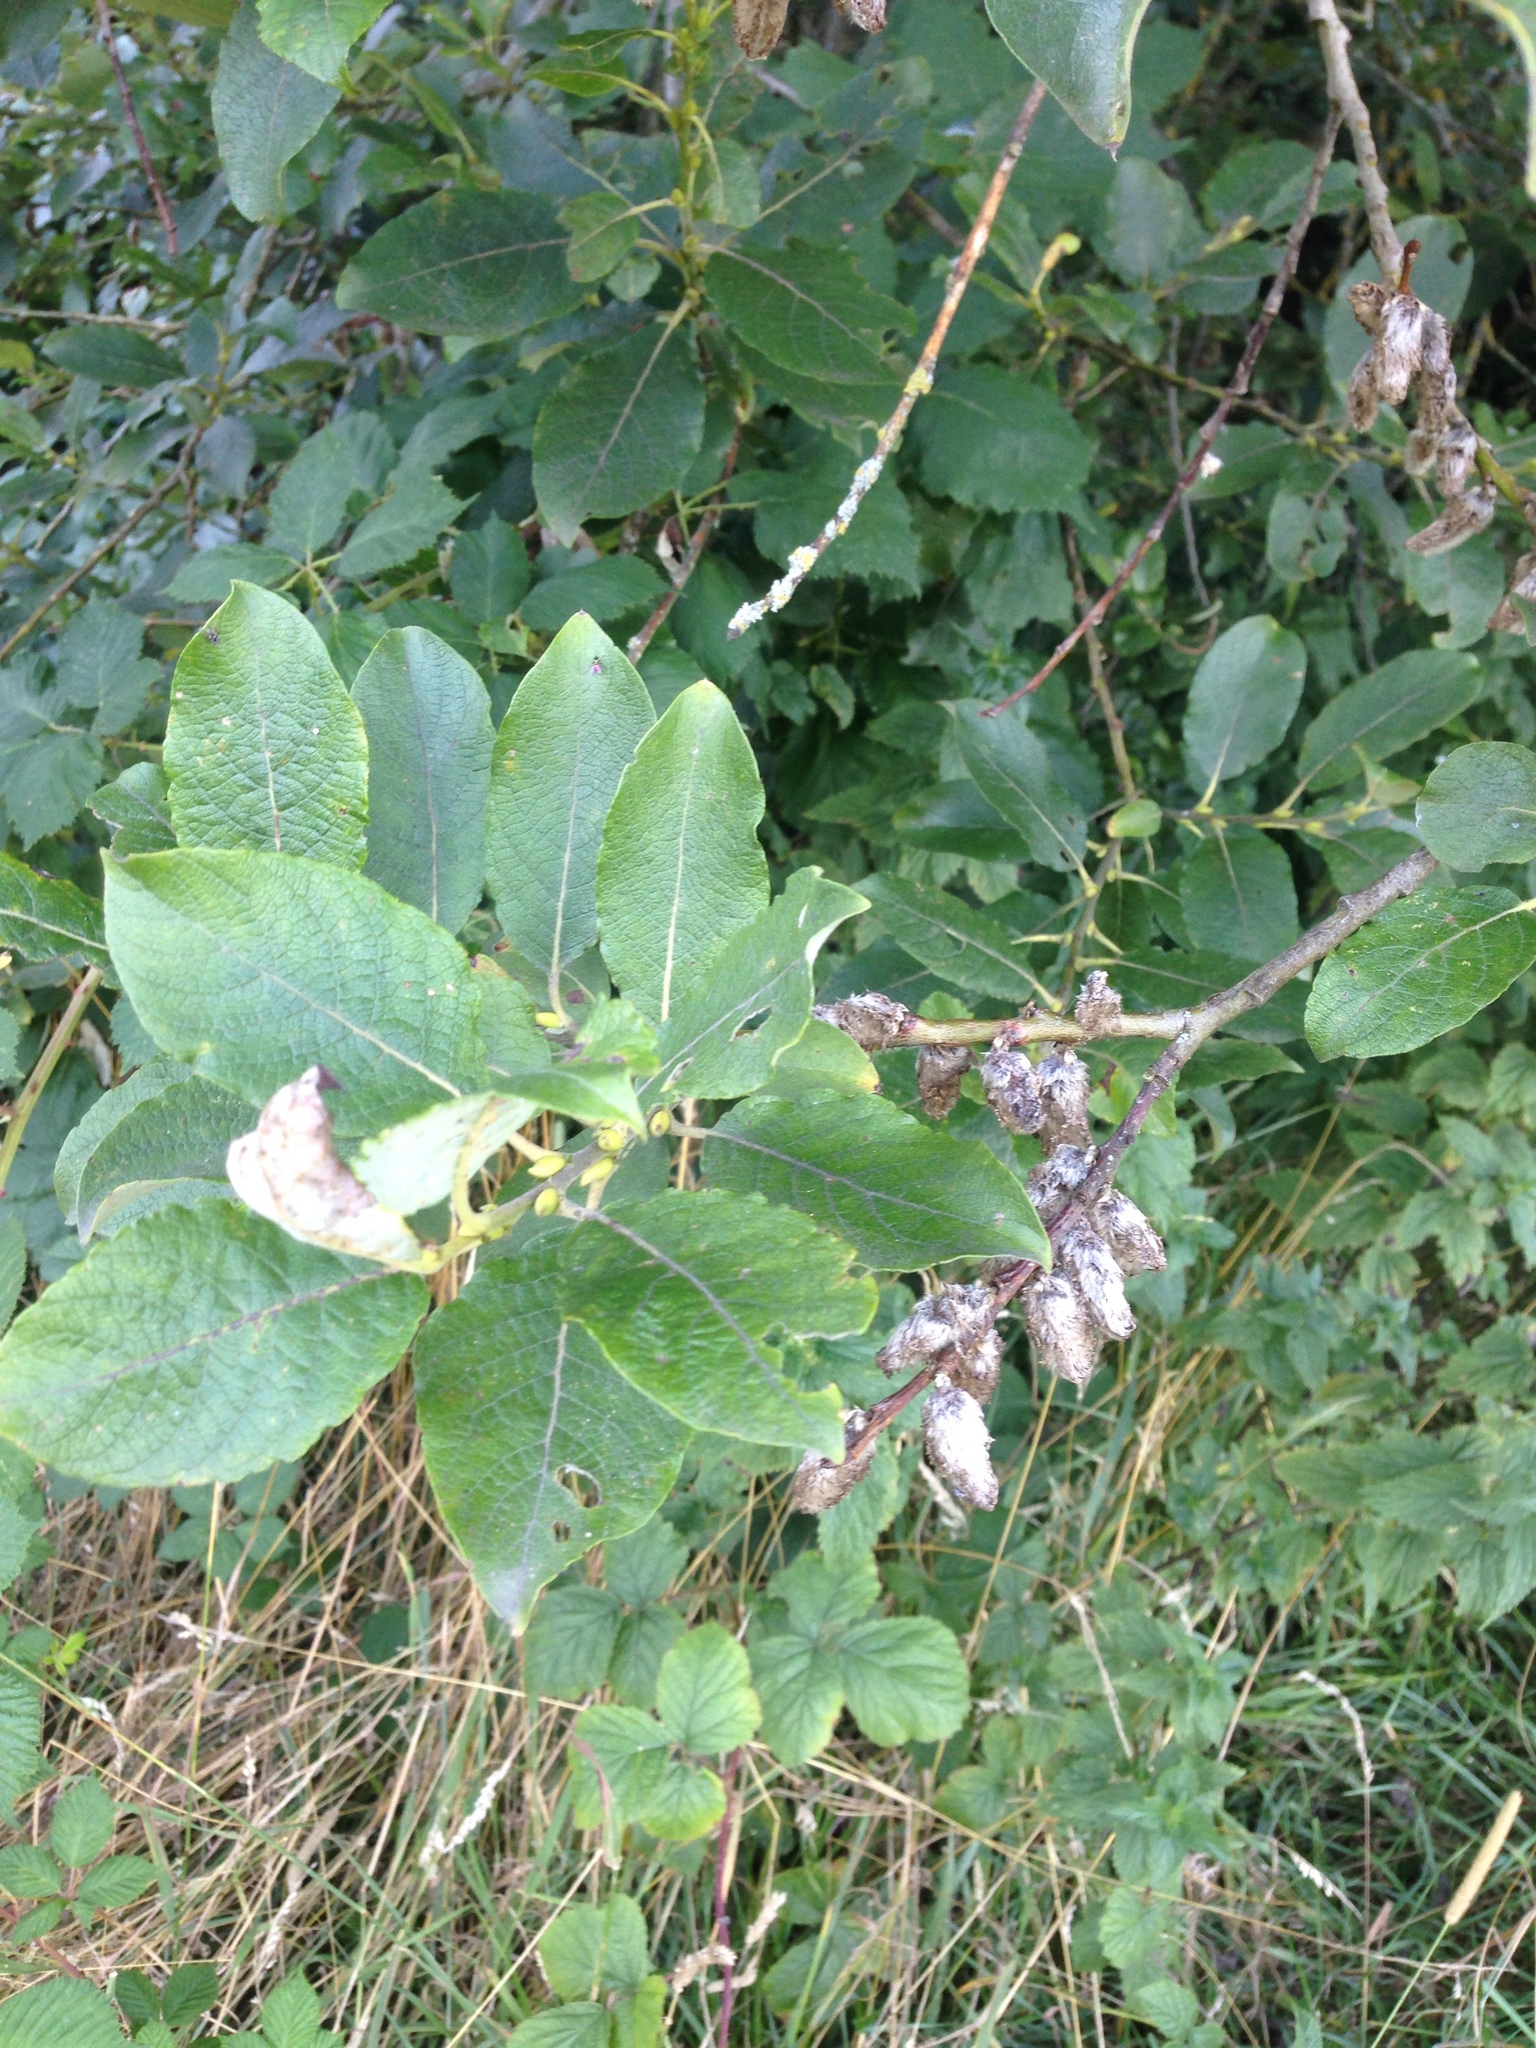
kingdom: Plantae
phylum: Tracheophyta
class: Magnoliopsida
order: Malpighiales
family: Salicaceae
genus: Salix
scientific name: Salix caprea
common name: Goat willow
